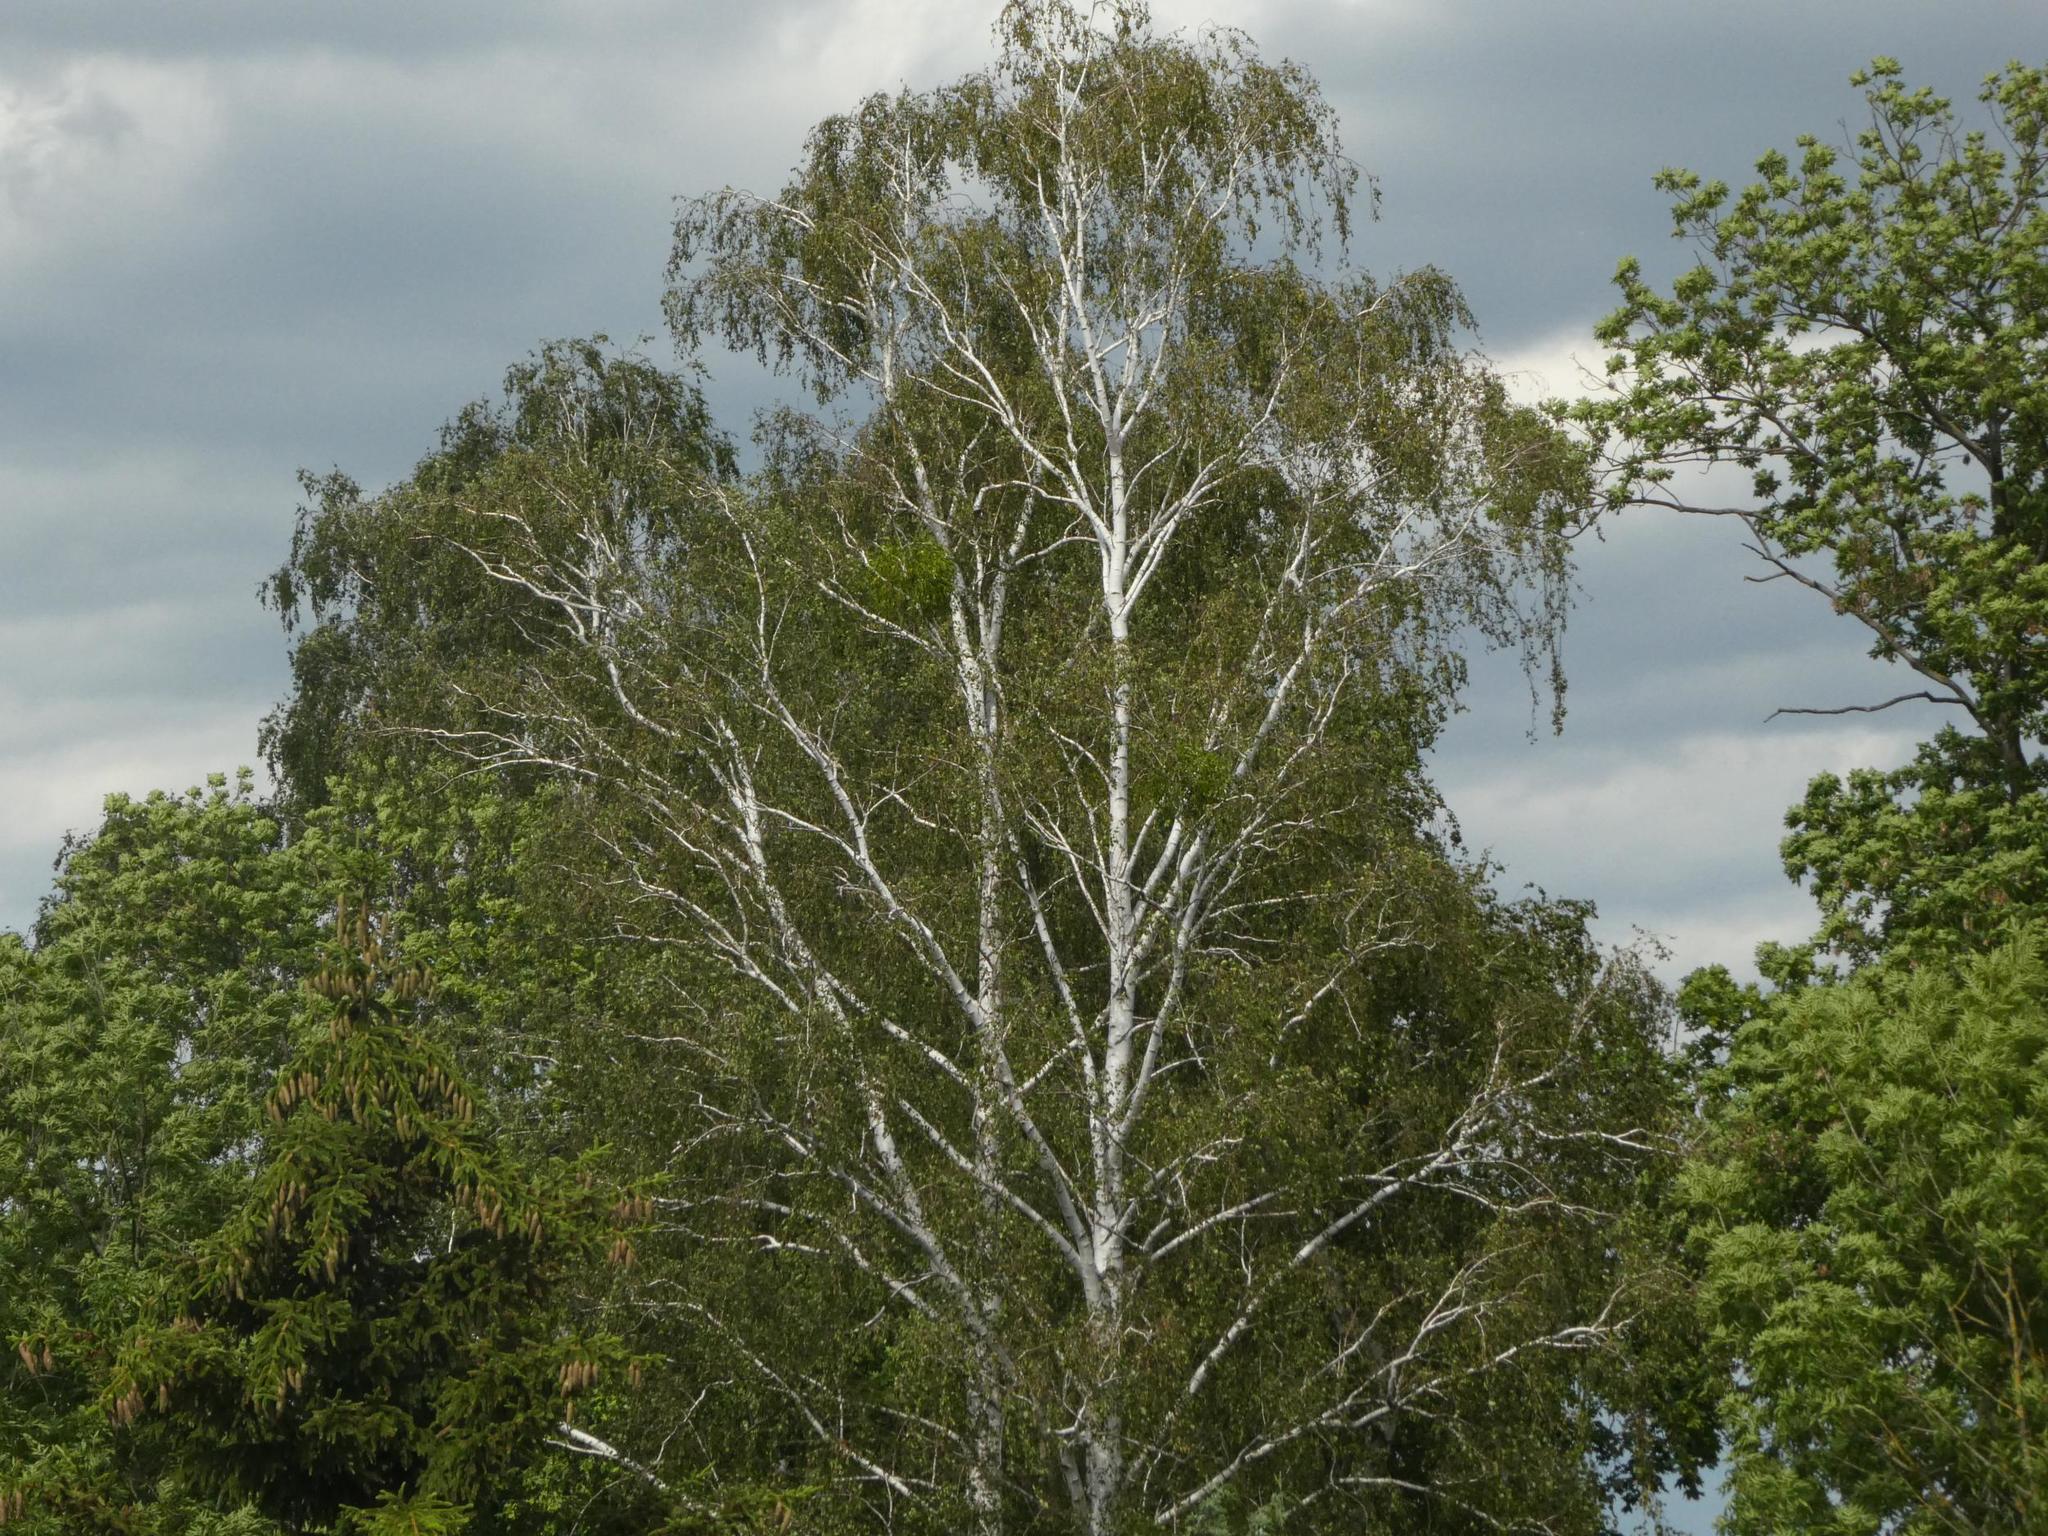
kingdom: Plantae
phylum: Tracheophyta
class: Magnoliopsida
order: Fagales
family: Betulaceae
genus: Betula
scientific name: Betula pendula
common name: Silver birch
